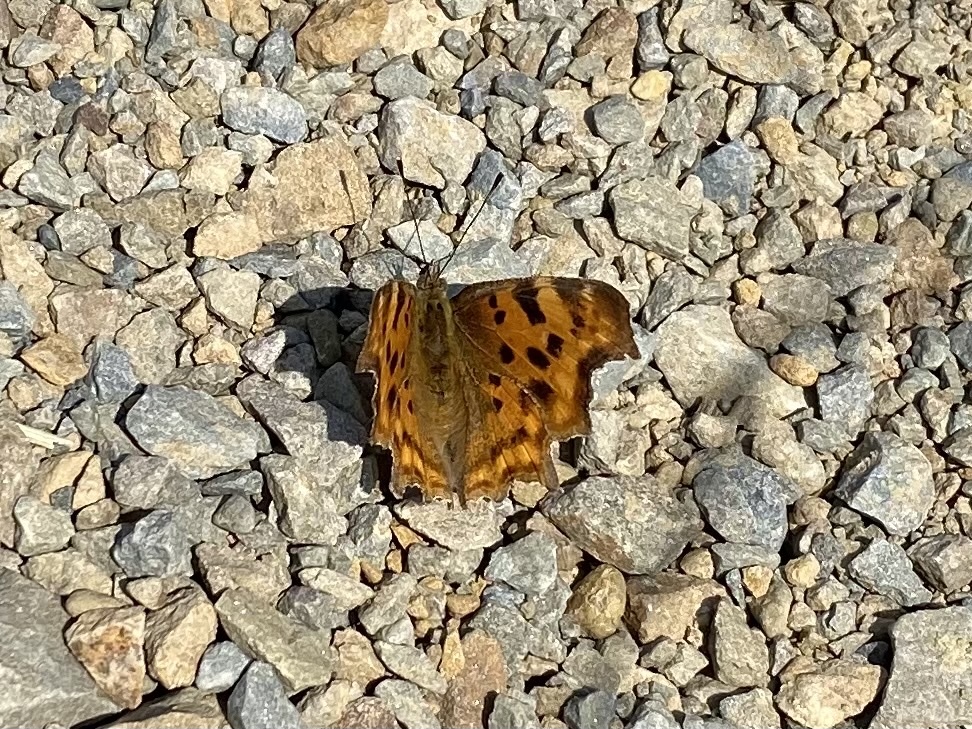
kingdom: Animalia
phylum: Arthropoda
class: Insecta
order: Lepidoptera
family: Nymphalidae
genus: Polygonia
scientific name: Polygonia c-album
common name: Comma
